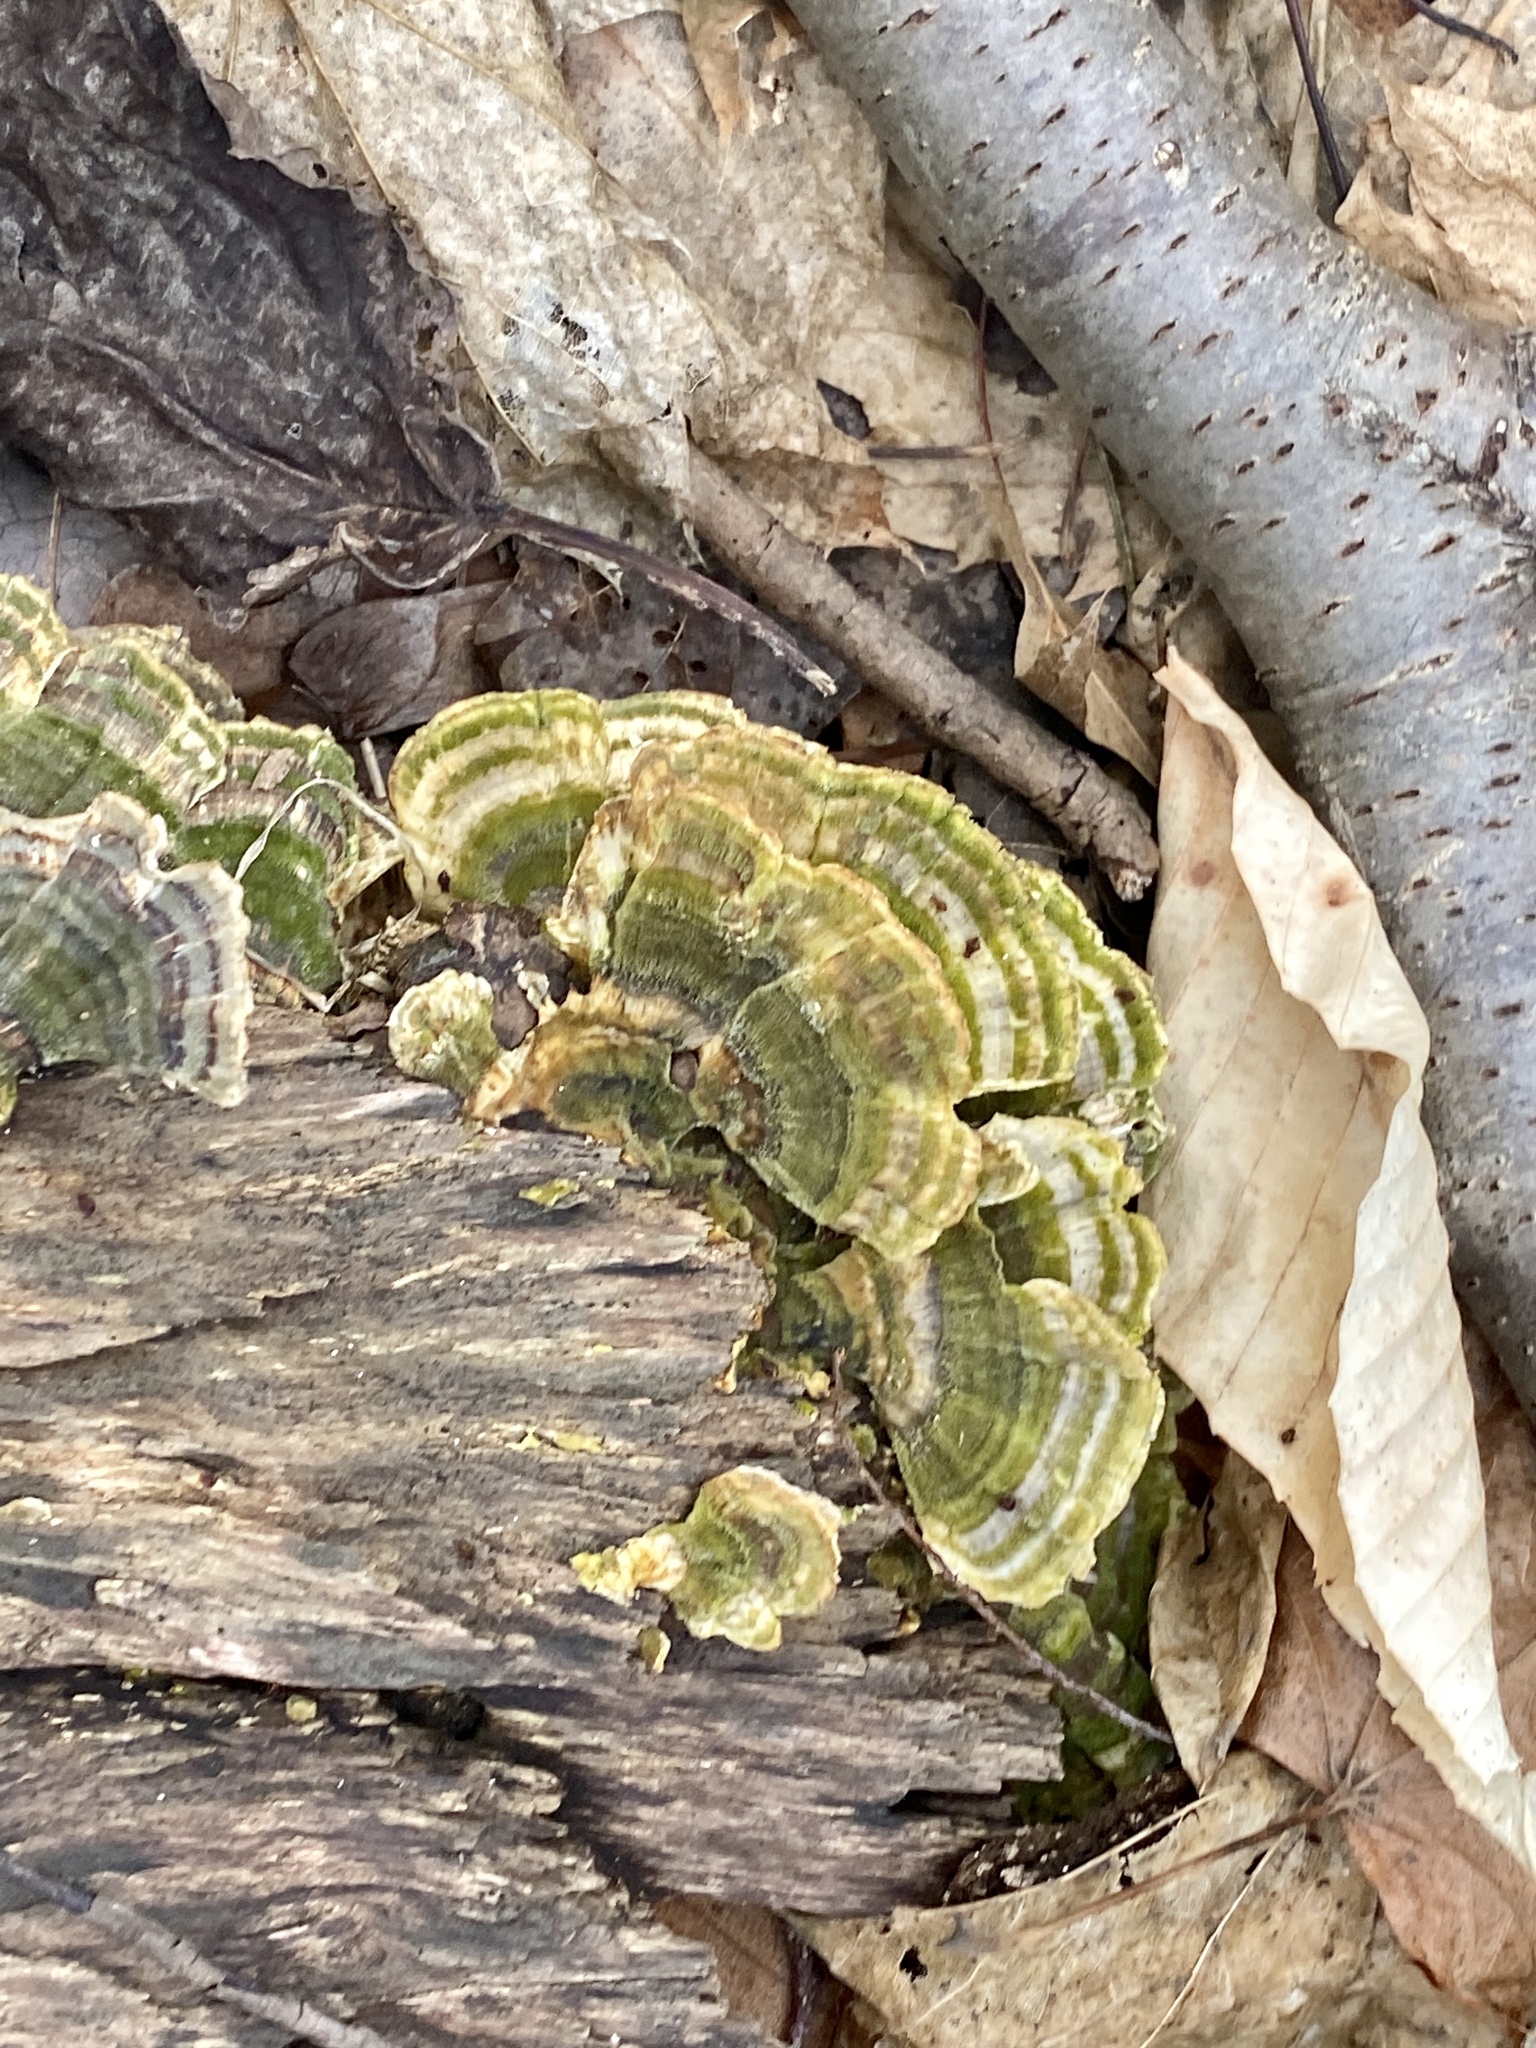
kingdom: Fungi
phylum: Basidiomycota
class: Agaricomycetes
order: Polyporales
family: Polyporaceae
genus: Trametes
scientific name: Trametes versicolor
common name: Turkeytail
